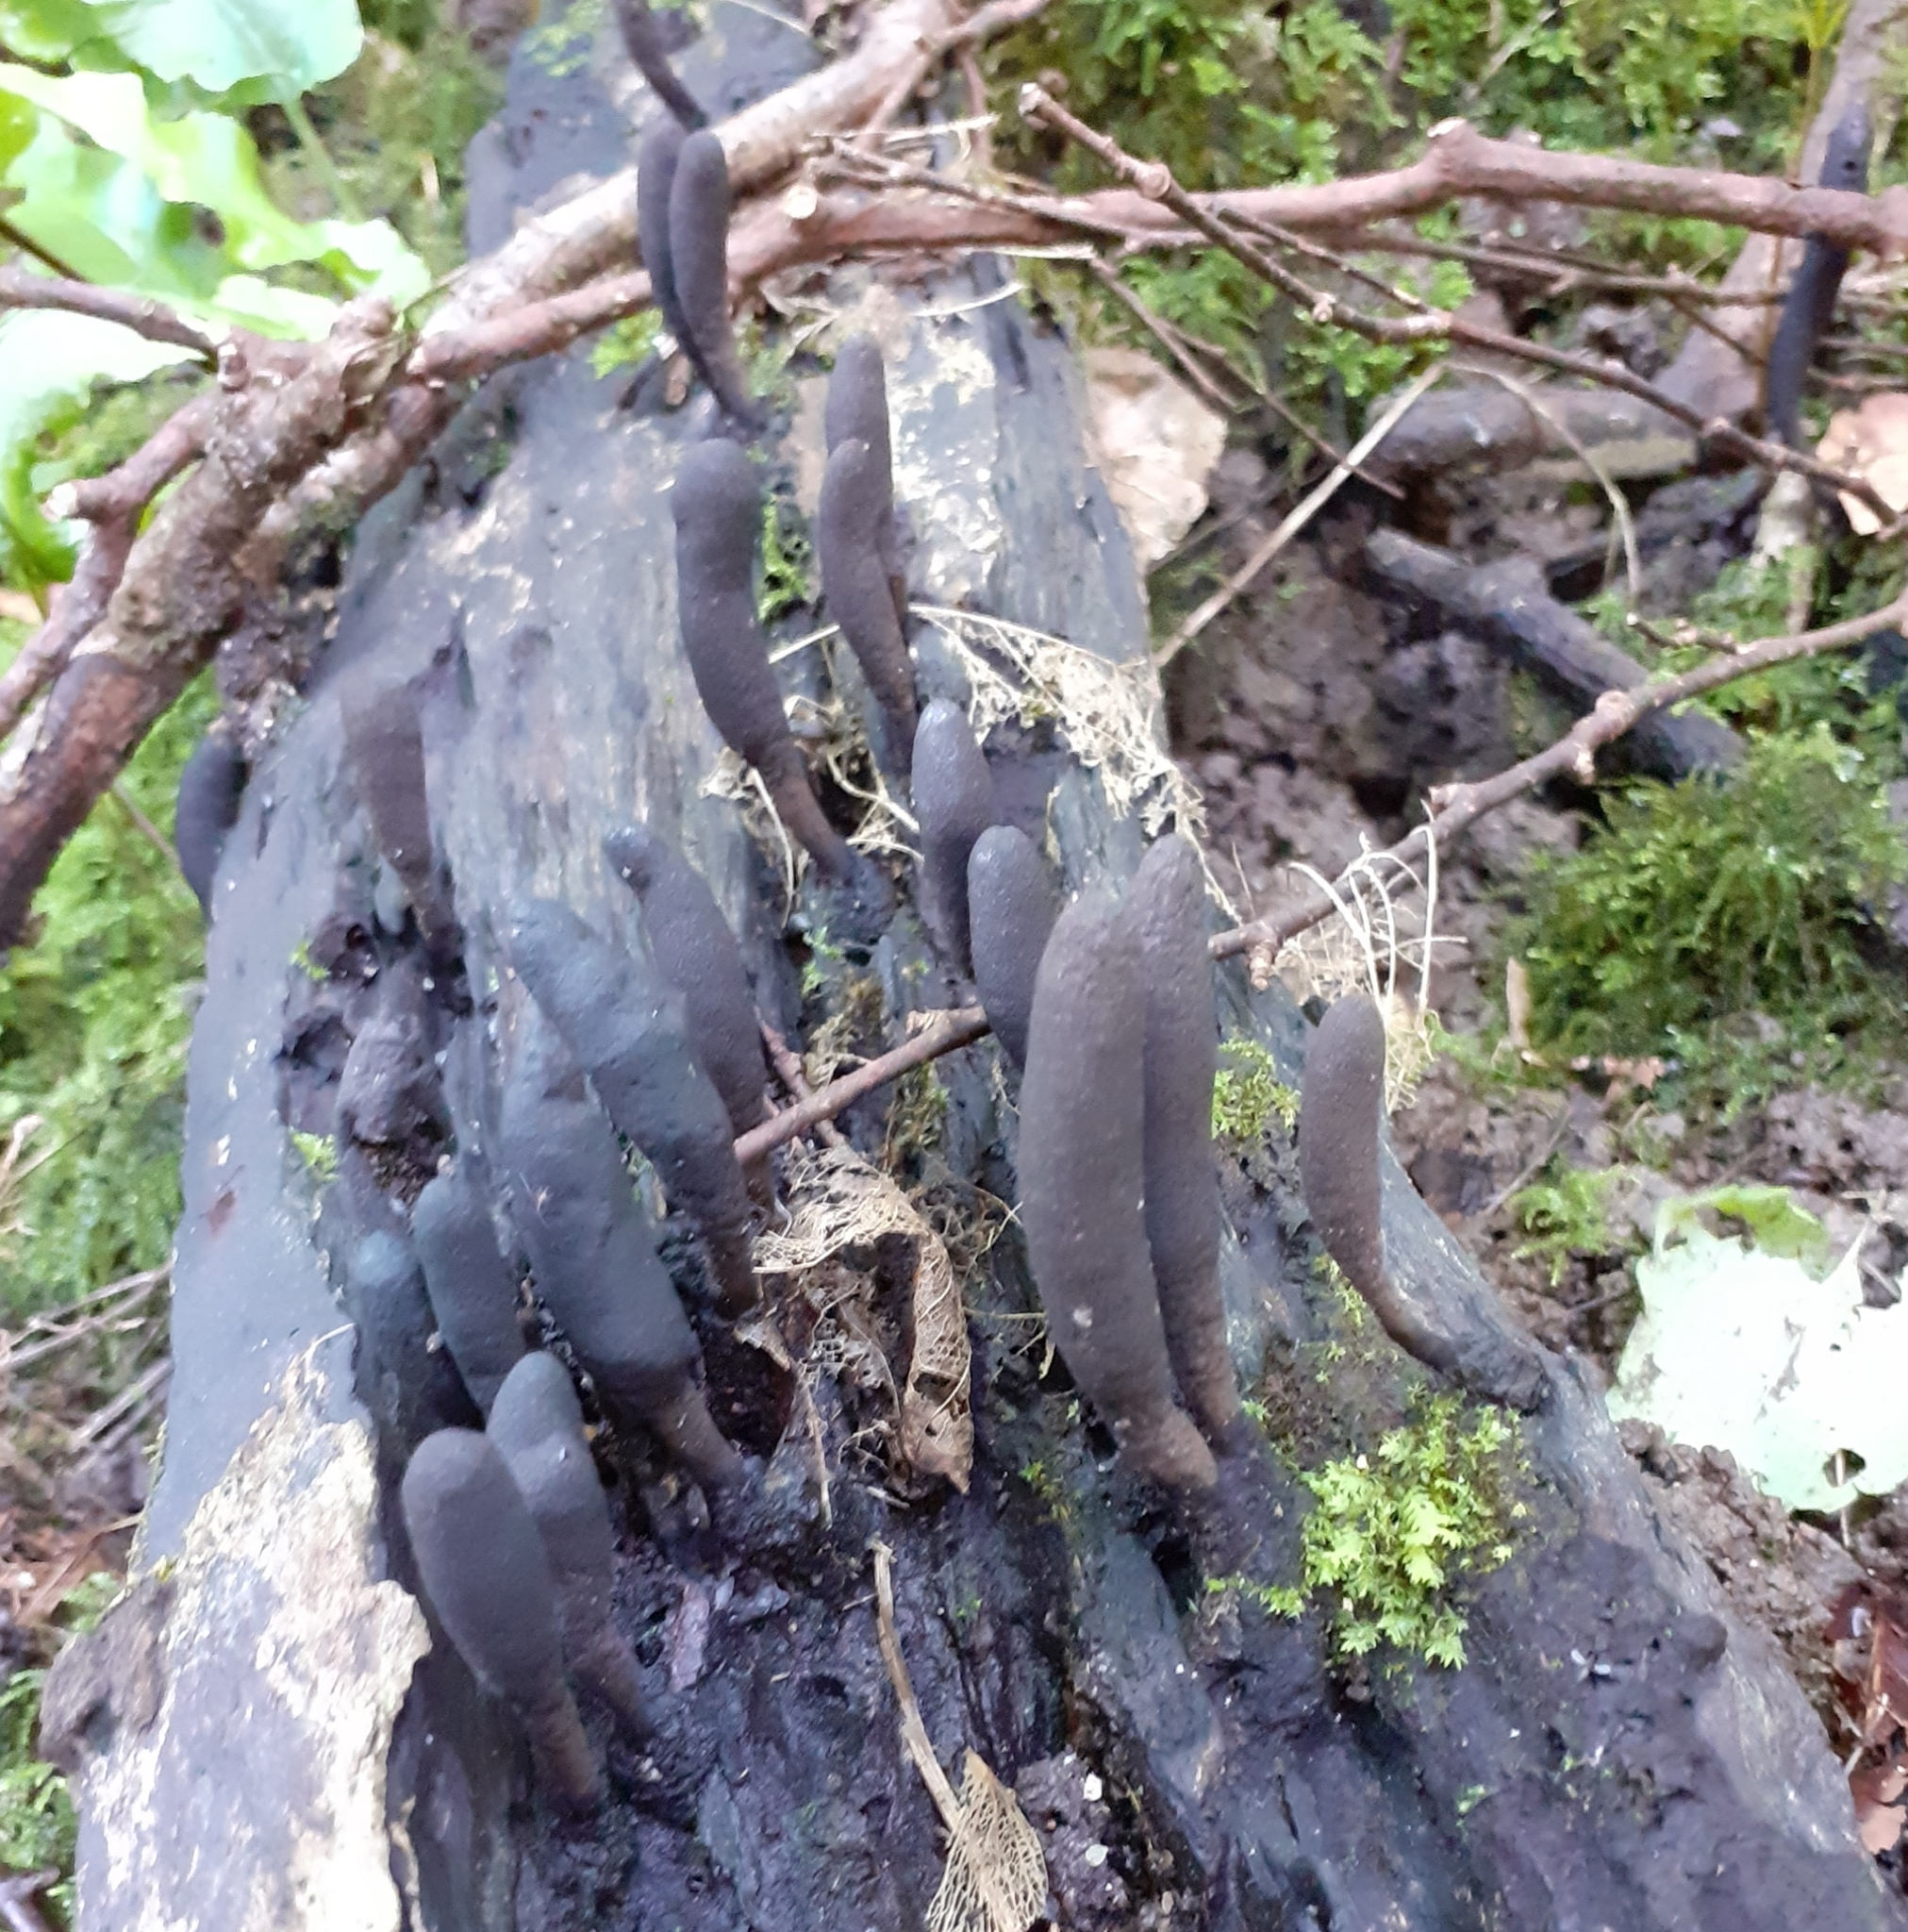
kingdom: Fungi
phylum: Ascomycota
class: Sordariomycetes
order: Xylariales
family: Xylariaceae
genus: Xylaria
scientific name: Xylaria polymorpha
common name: Dead man's fingers
